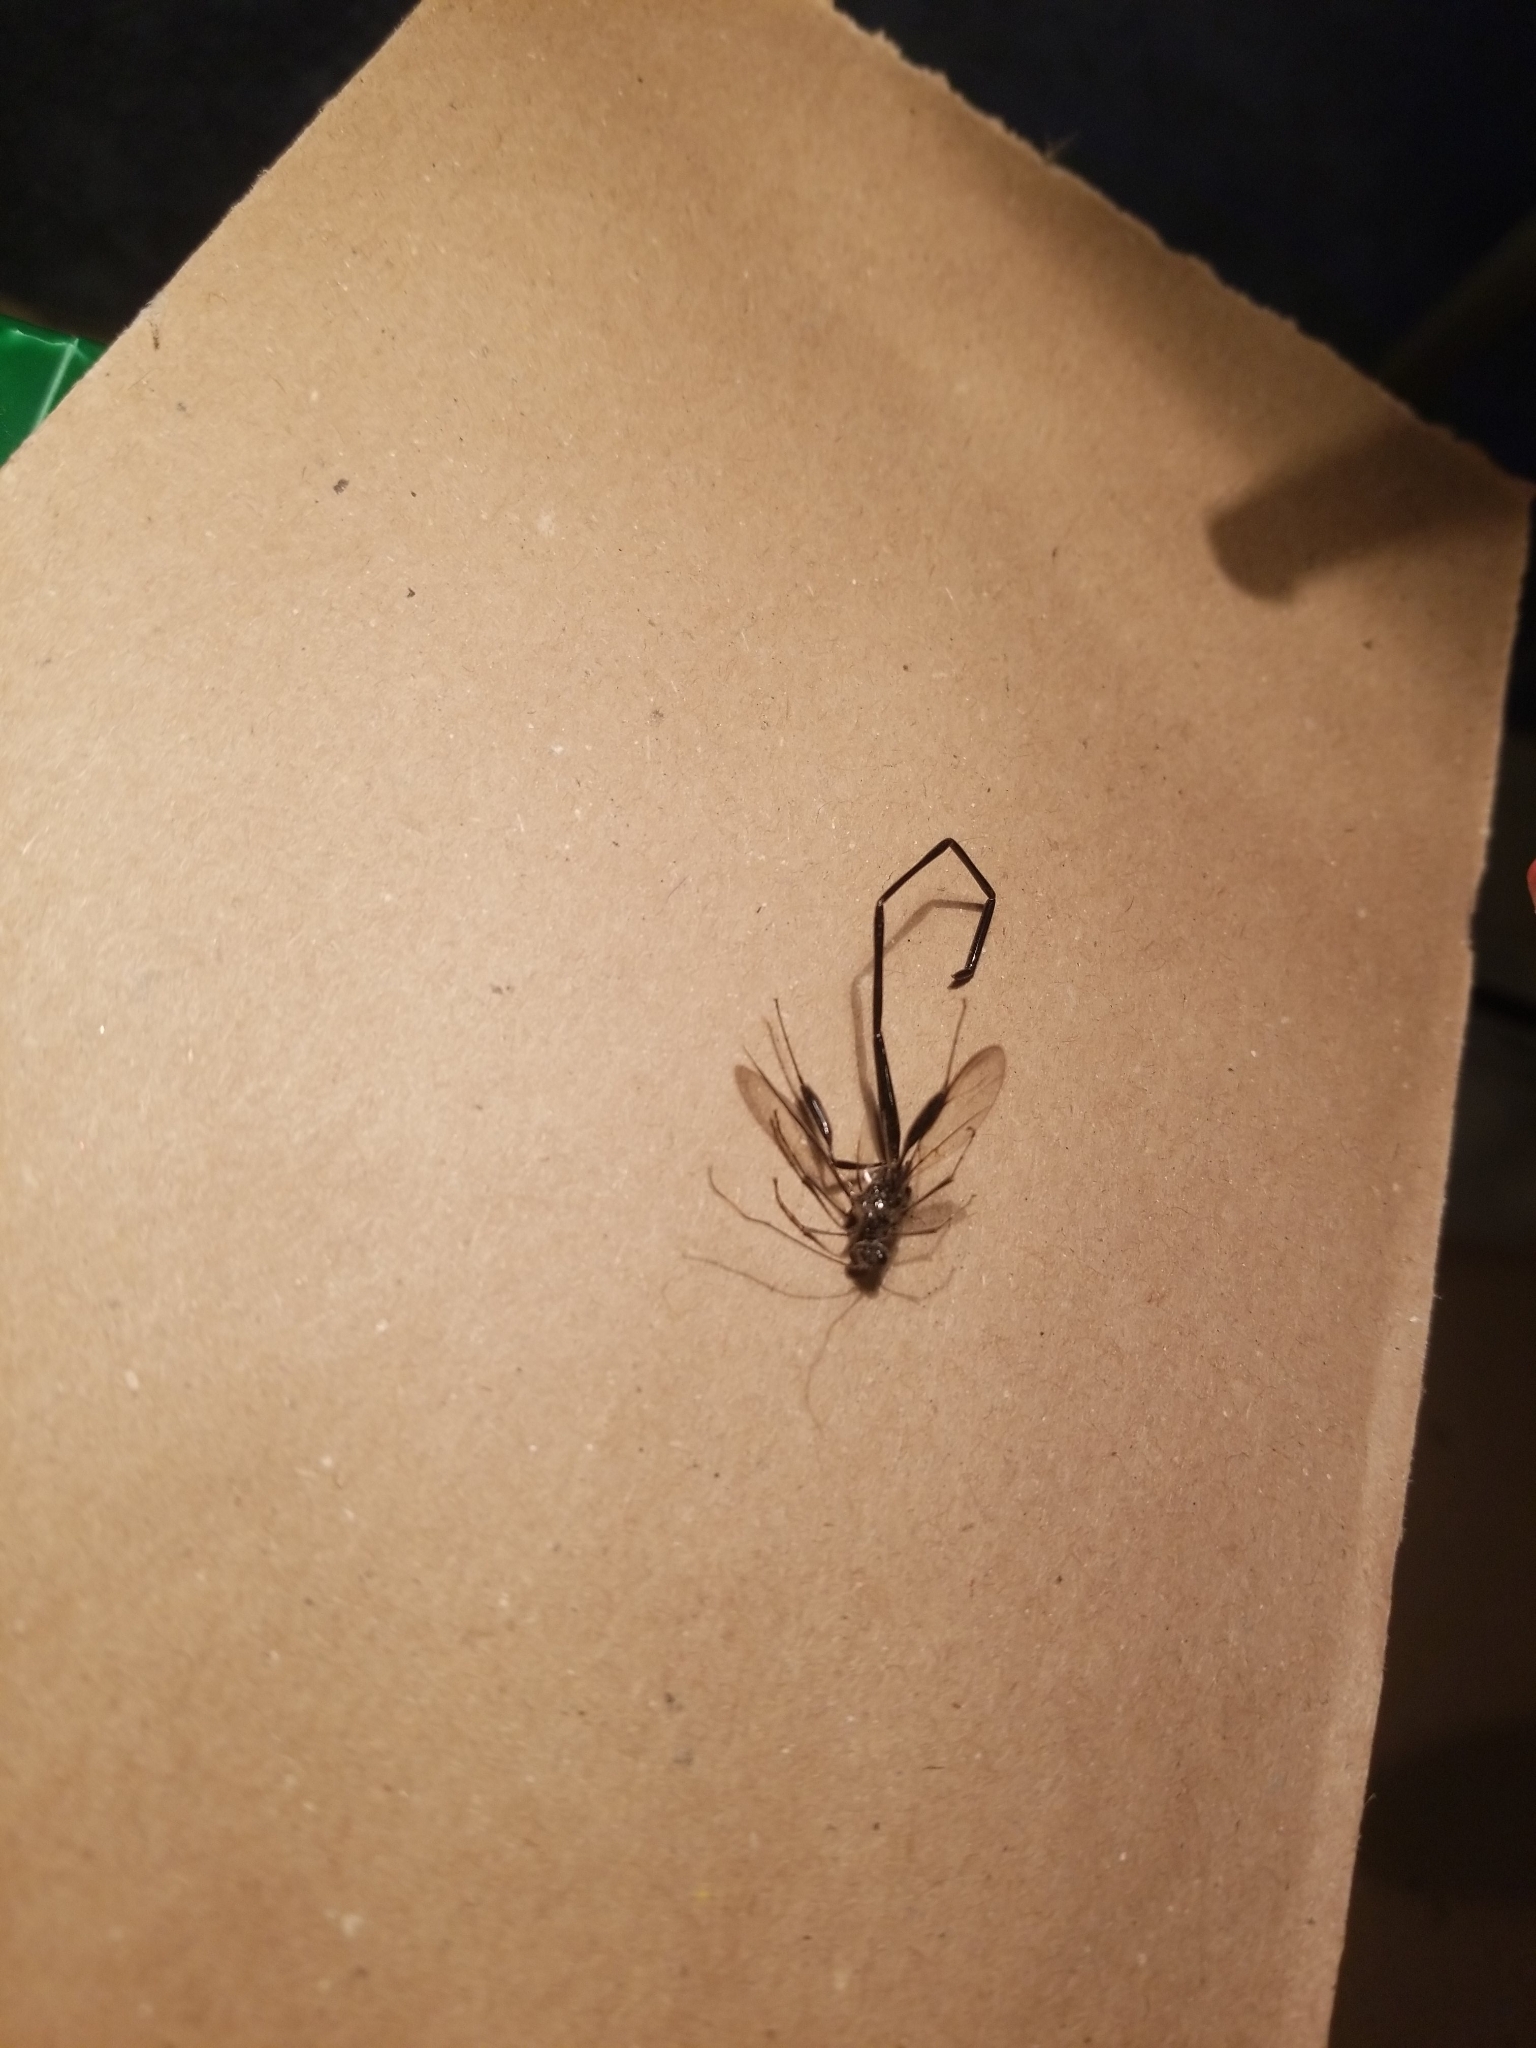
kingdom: Animalia
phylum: Arthropoda
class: Insecta
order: Hymenoptera
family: Pelecinidae
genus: Pelecinus
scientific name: Pelecinus polyturator
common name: American pelecinid wasp
